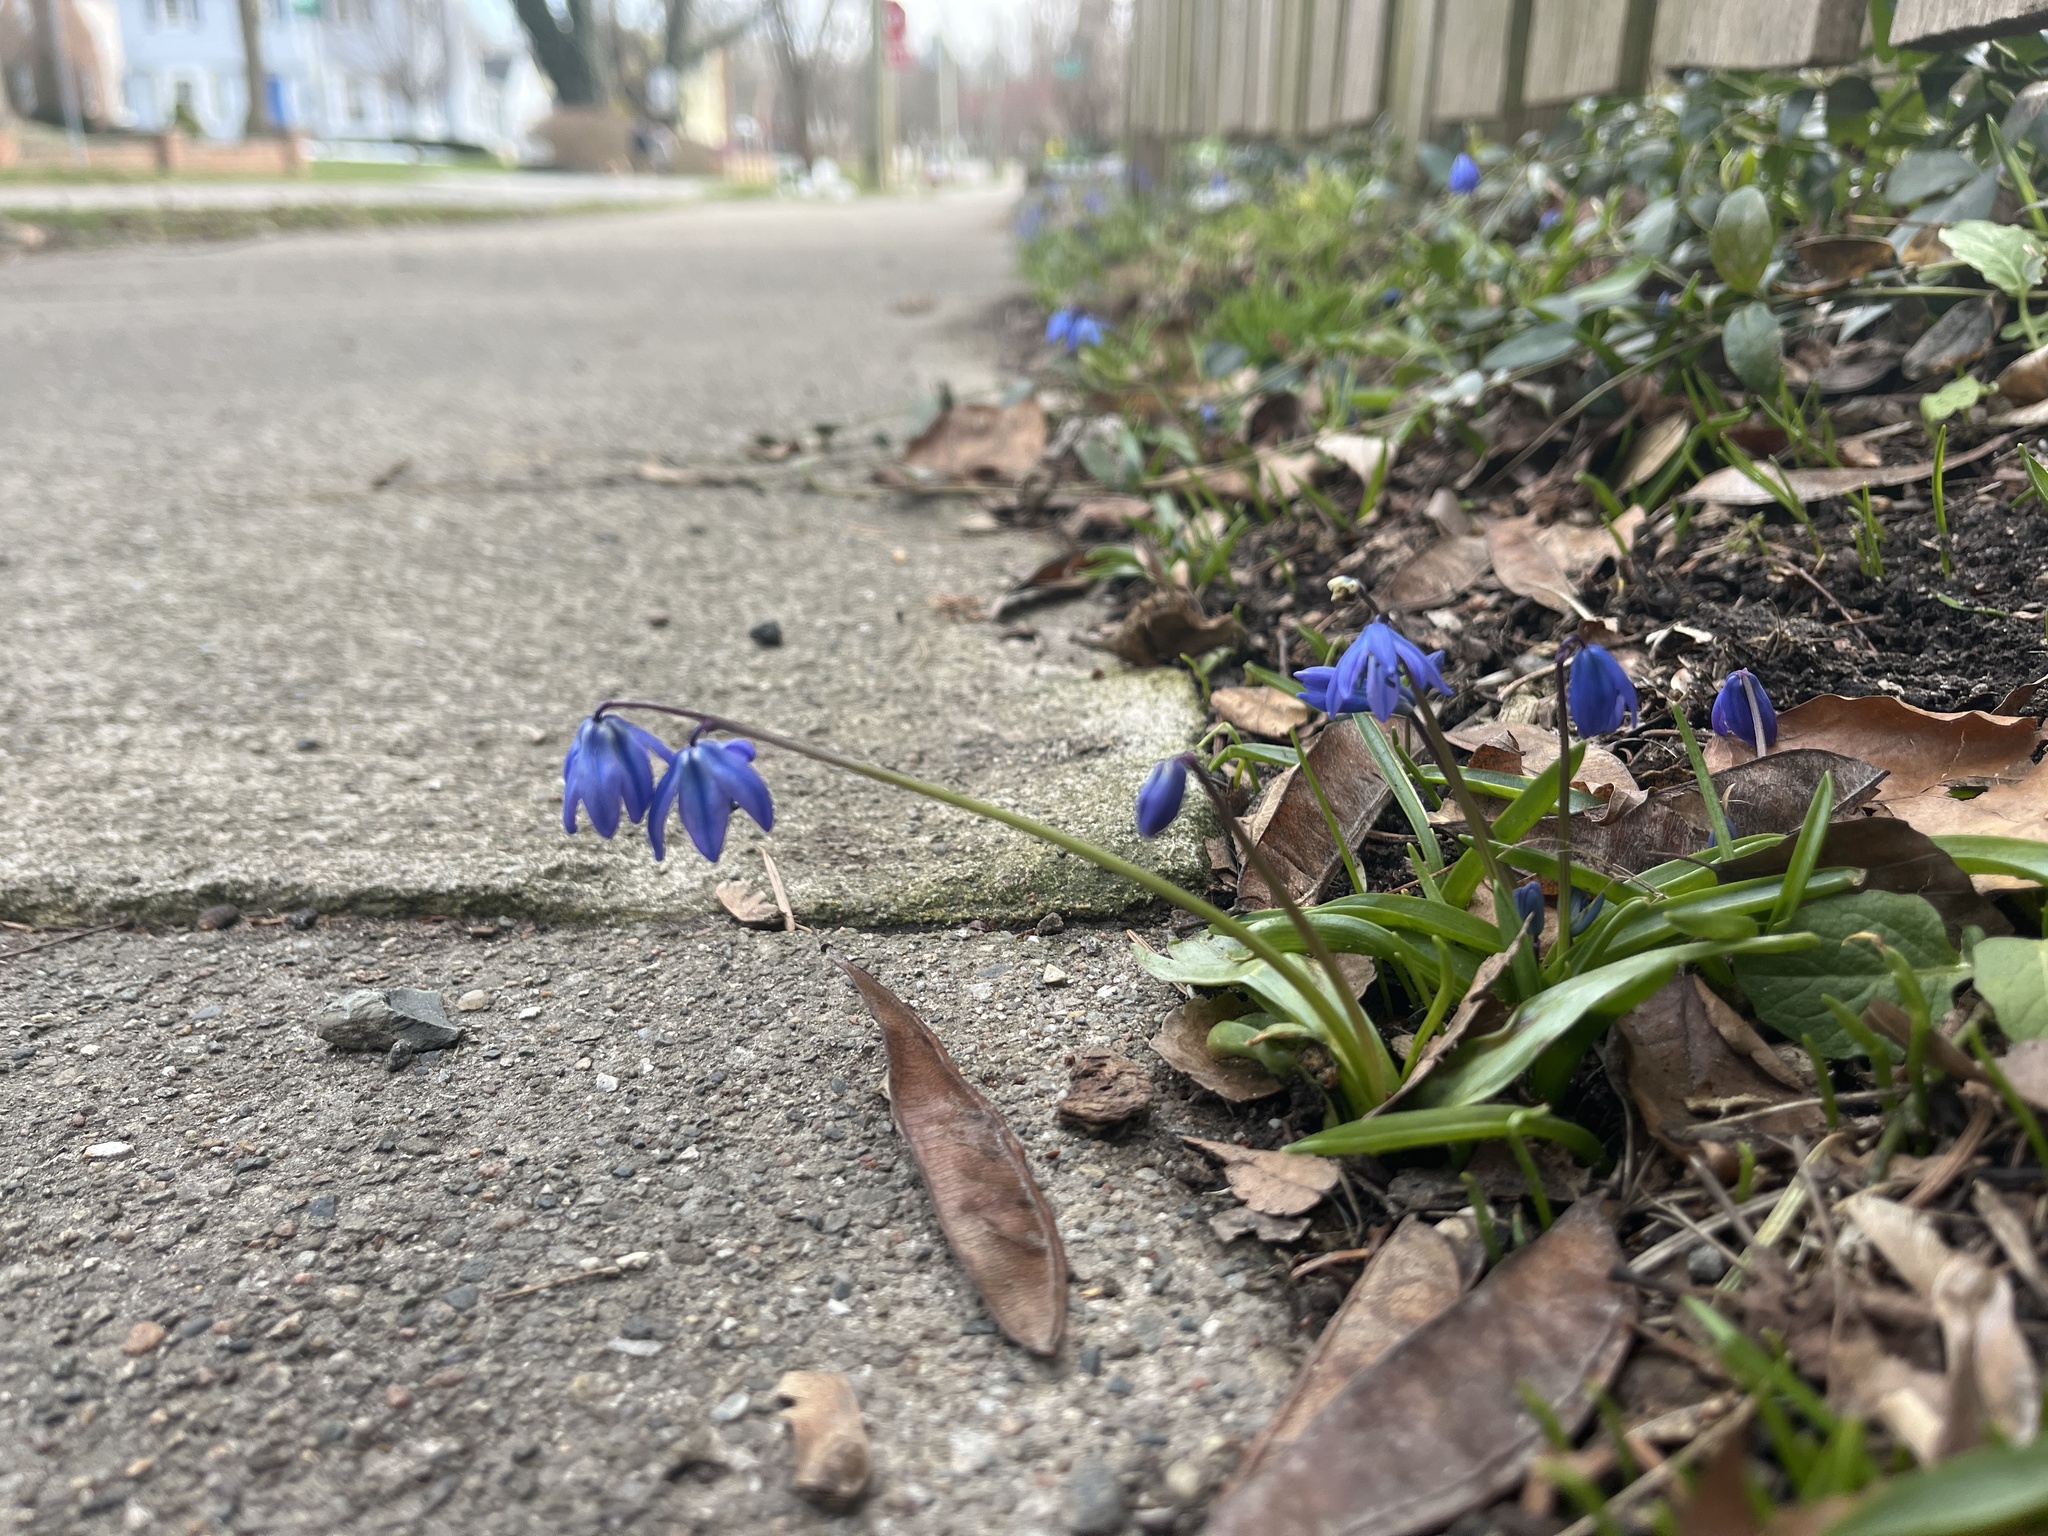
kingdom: Plantae
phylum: Tracheophyta
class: Liliopsida
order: Asparagales
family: Asparagaceae
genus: Scilla
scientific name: Scilla siberica
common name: Siberian squill
